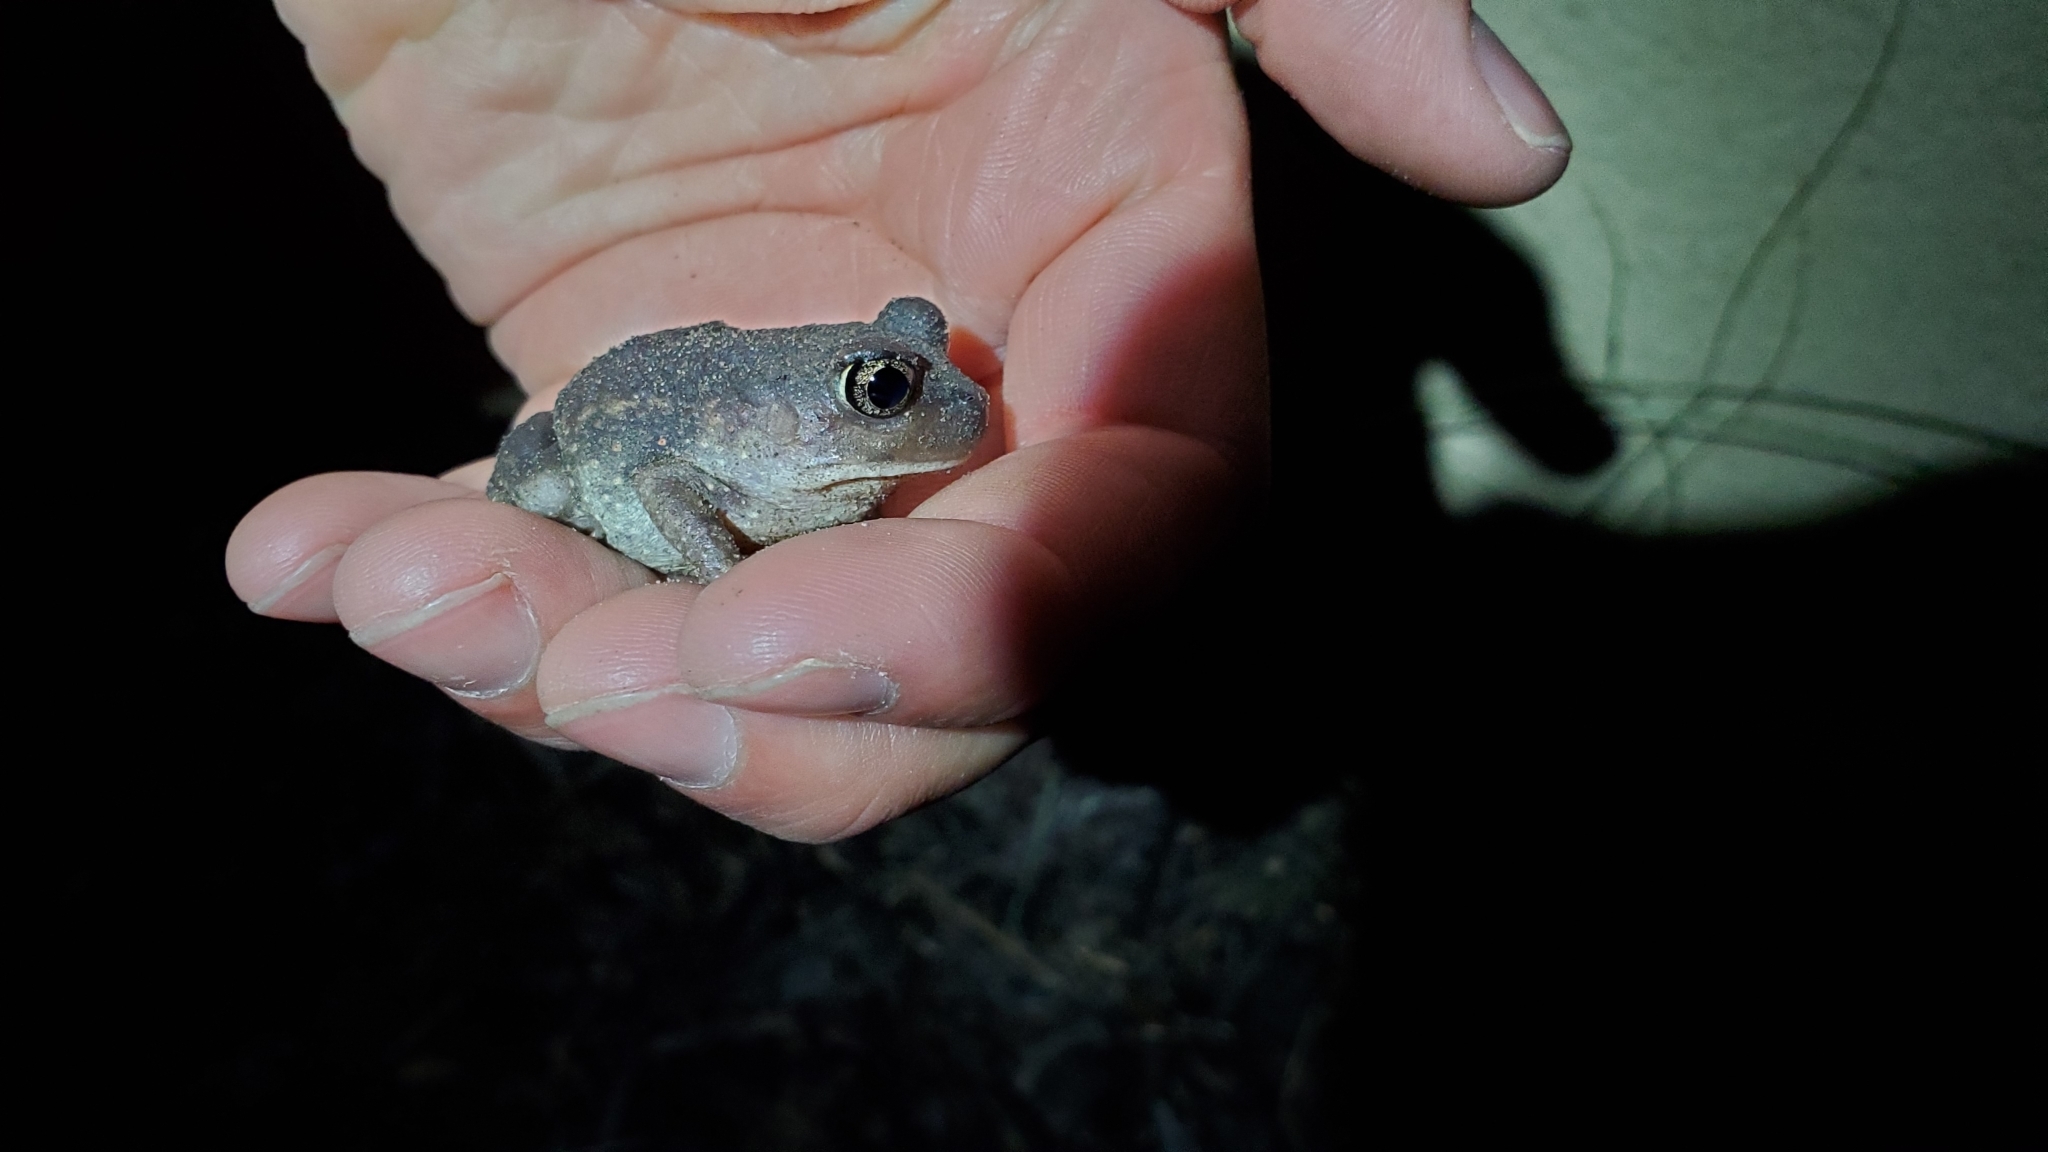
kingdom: Animalia
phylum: Chordata
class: Amphibia
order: Anura
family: Scaphiopodidae
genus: Scaphiopus
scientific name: Scaphiopus holbrookii
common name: Eastern spadefoot toad
